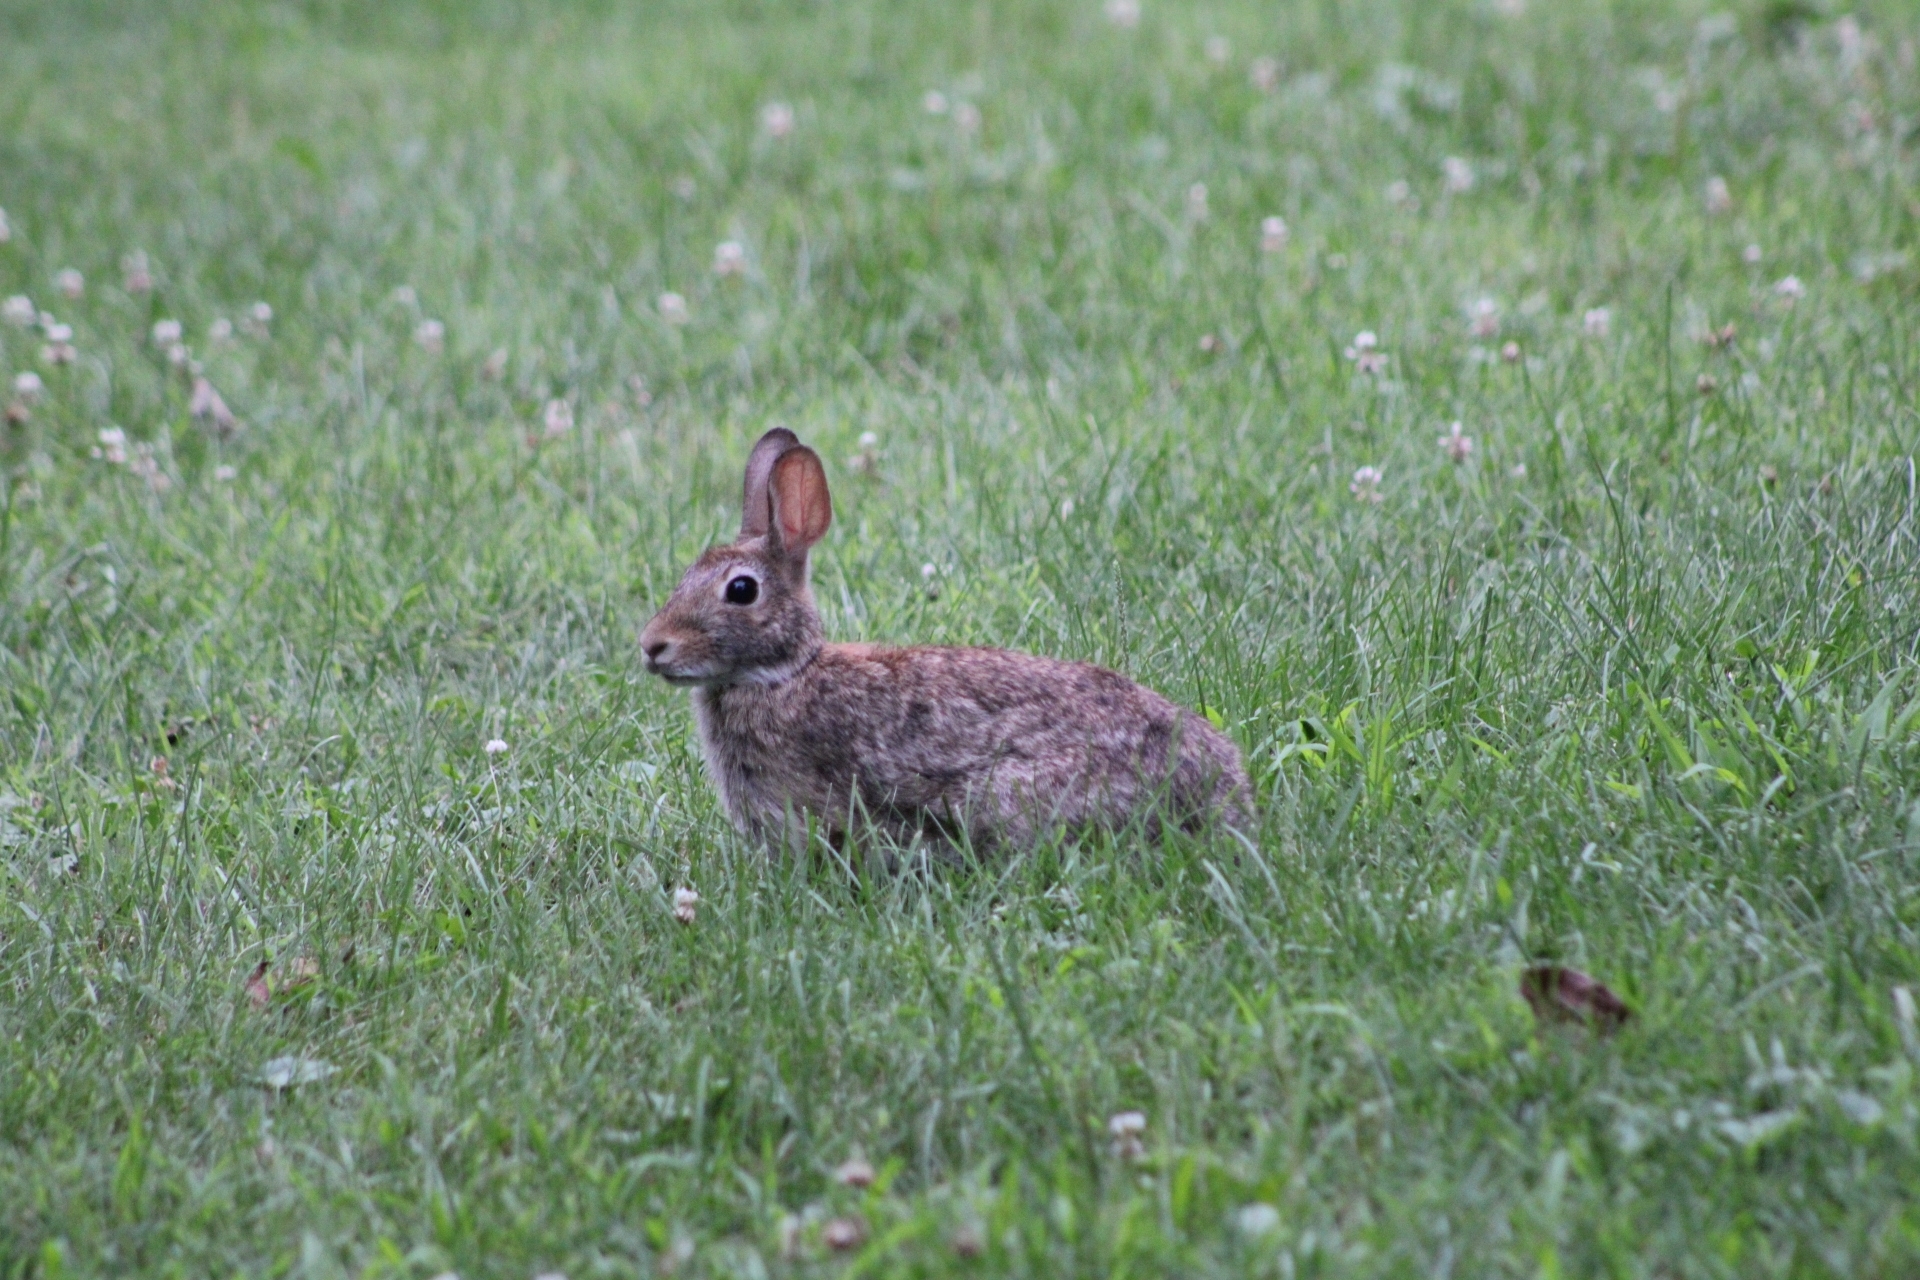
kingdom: Animalia
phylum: Chordata
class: Mammalia
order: Lagomorpha
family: Leporidae
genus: Sylvilagus
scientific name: Sylvilagus floridanus
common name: Eastern cottontail
